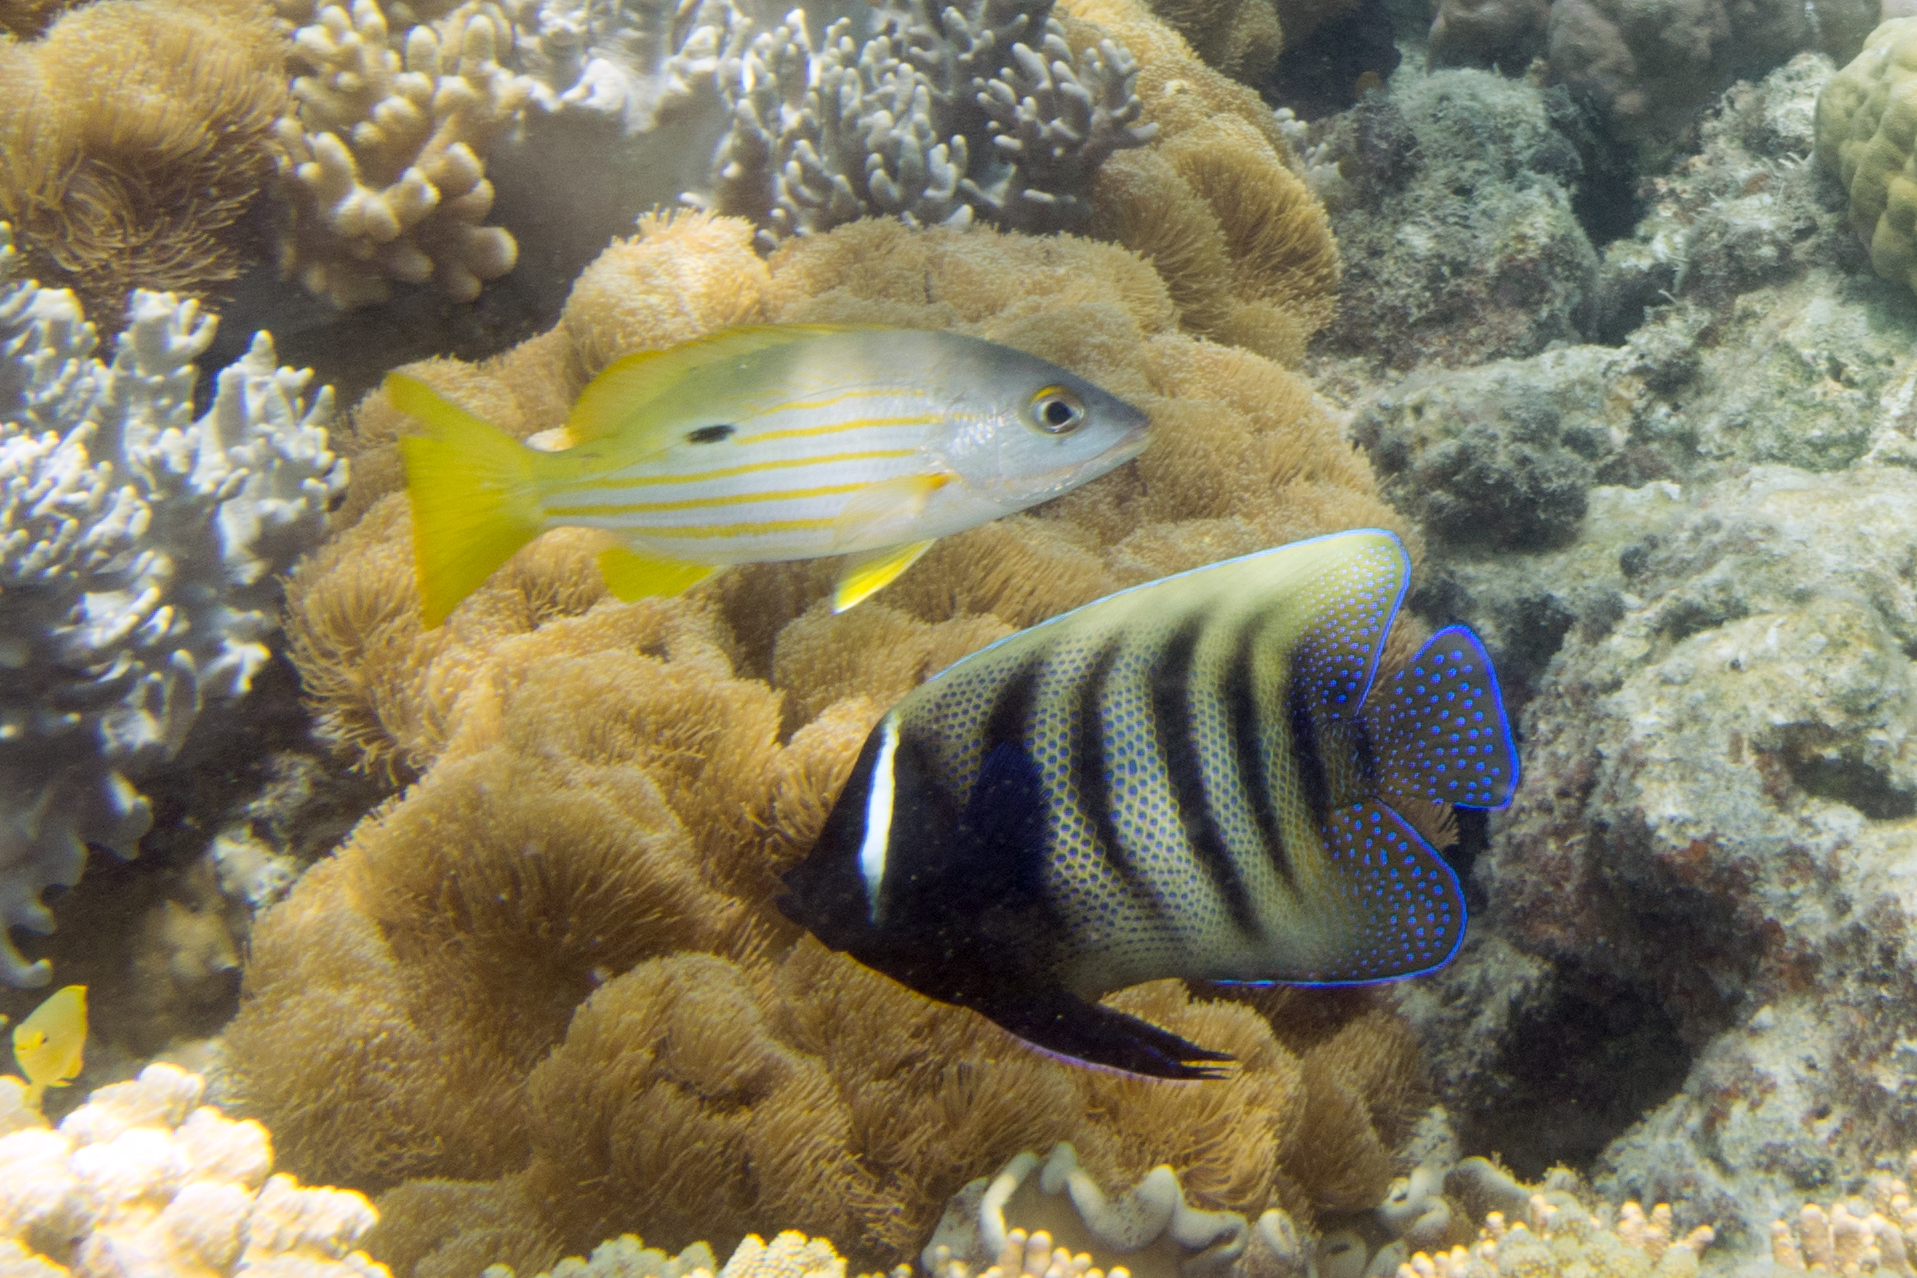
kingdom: Animalia
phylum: Chordata
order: Perciformes
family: Pomacanthidae
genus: Pomacanthus
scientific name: Pomacanthus sexstriatus
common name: Six-banded angelfish
